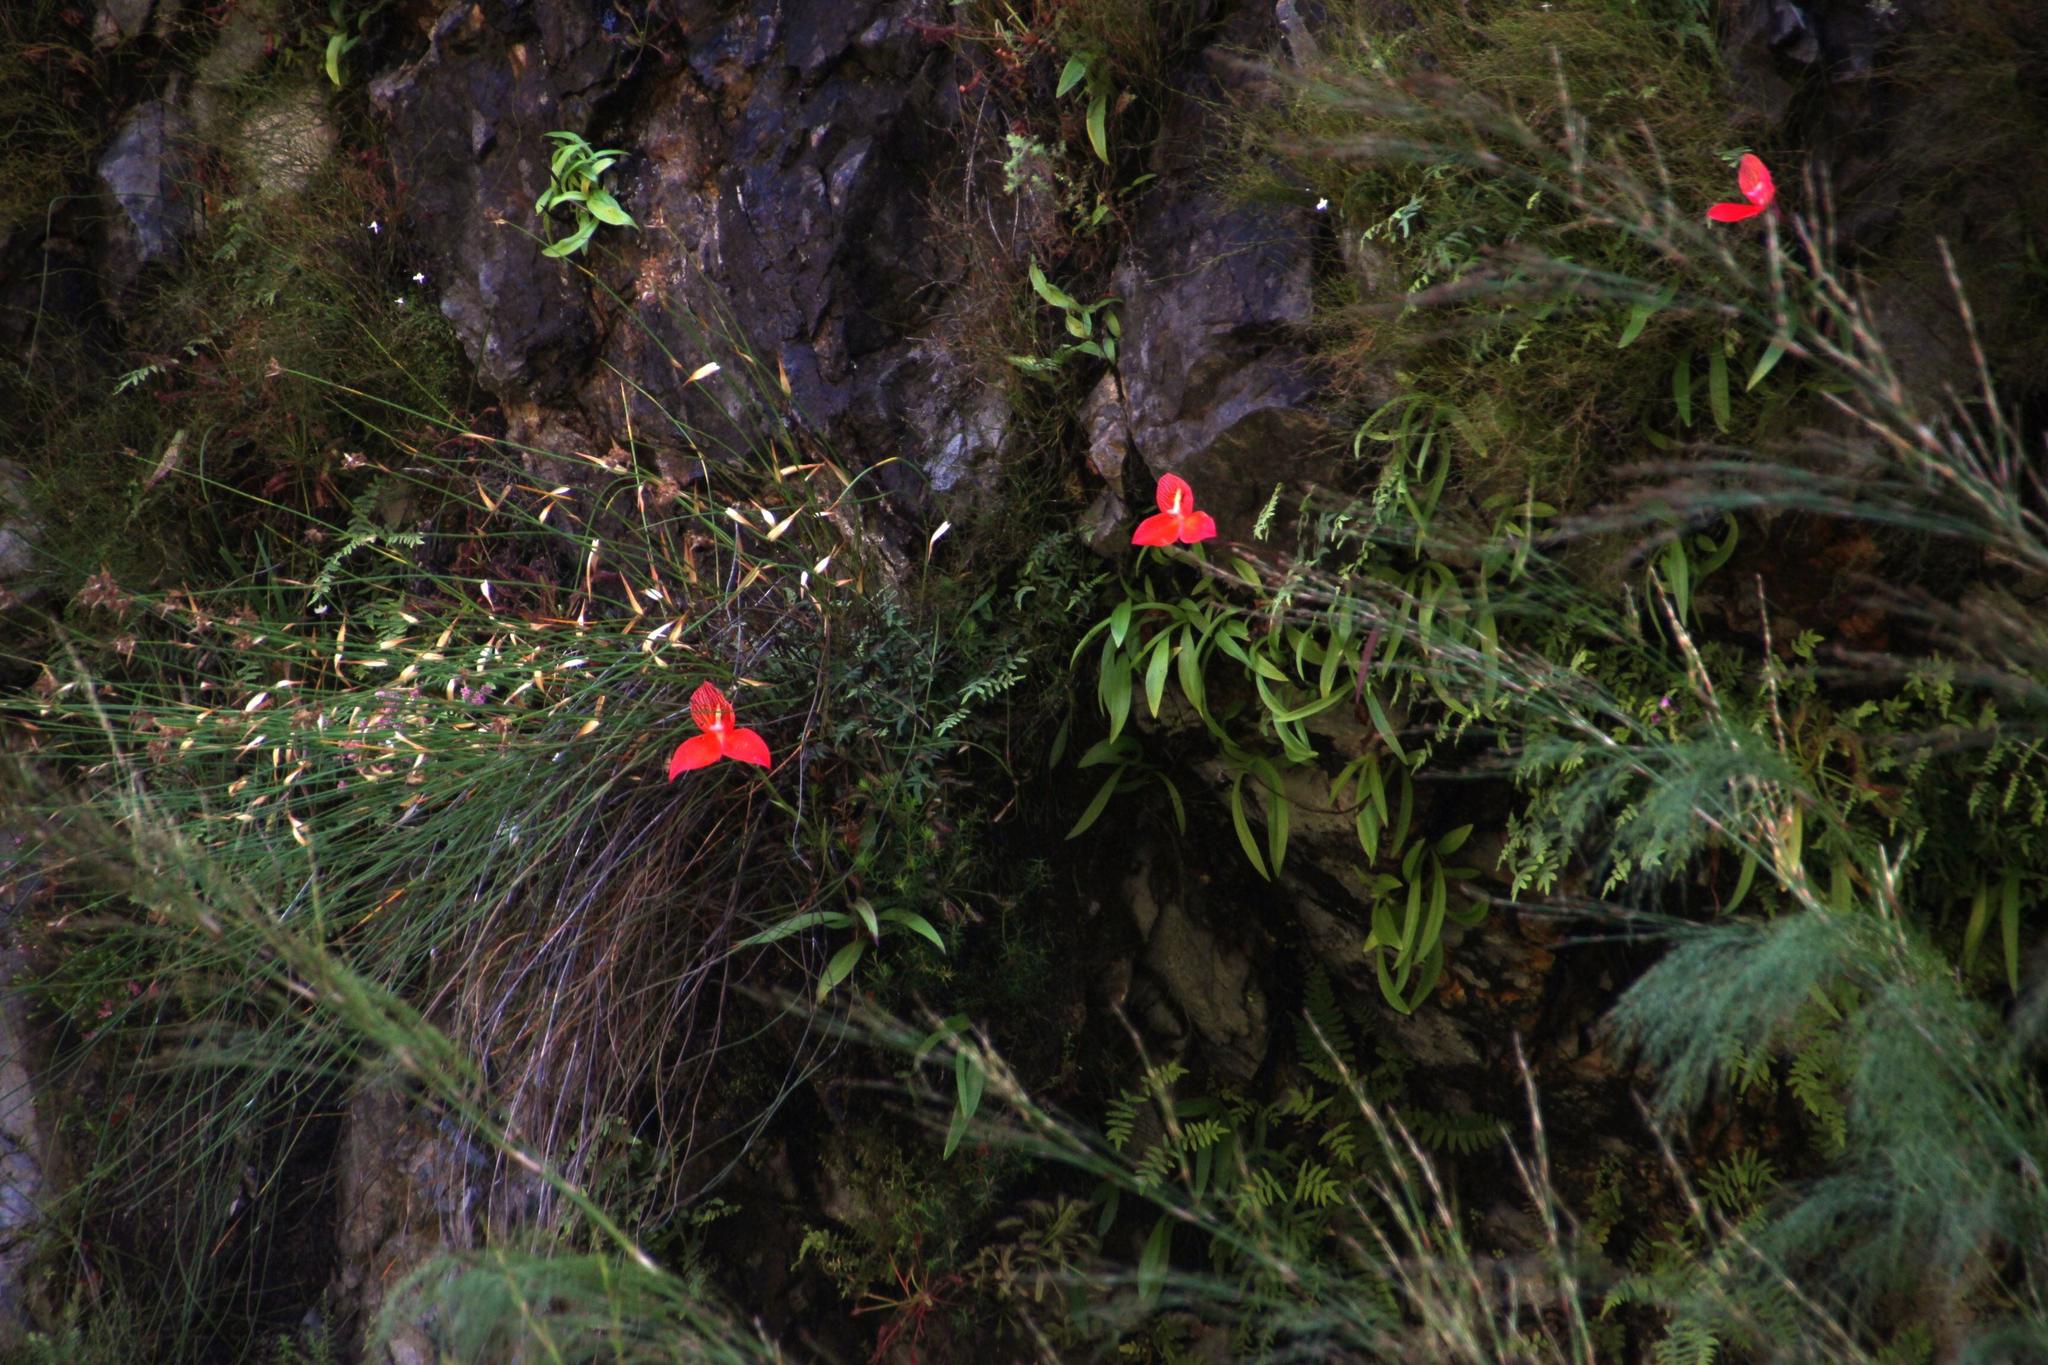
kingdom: Plantae
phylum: Tracheophyta
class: Liliopsida
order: Asparagales
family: Orchidaceae
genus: Disa
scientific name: Disa uniflora
